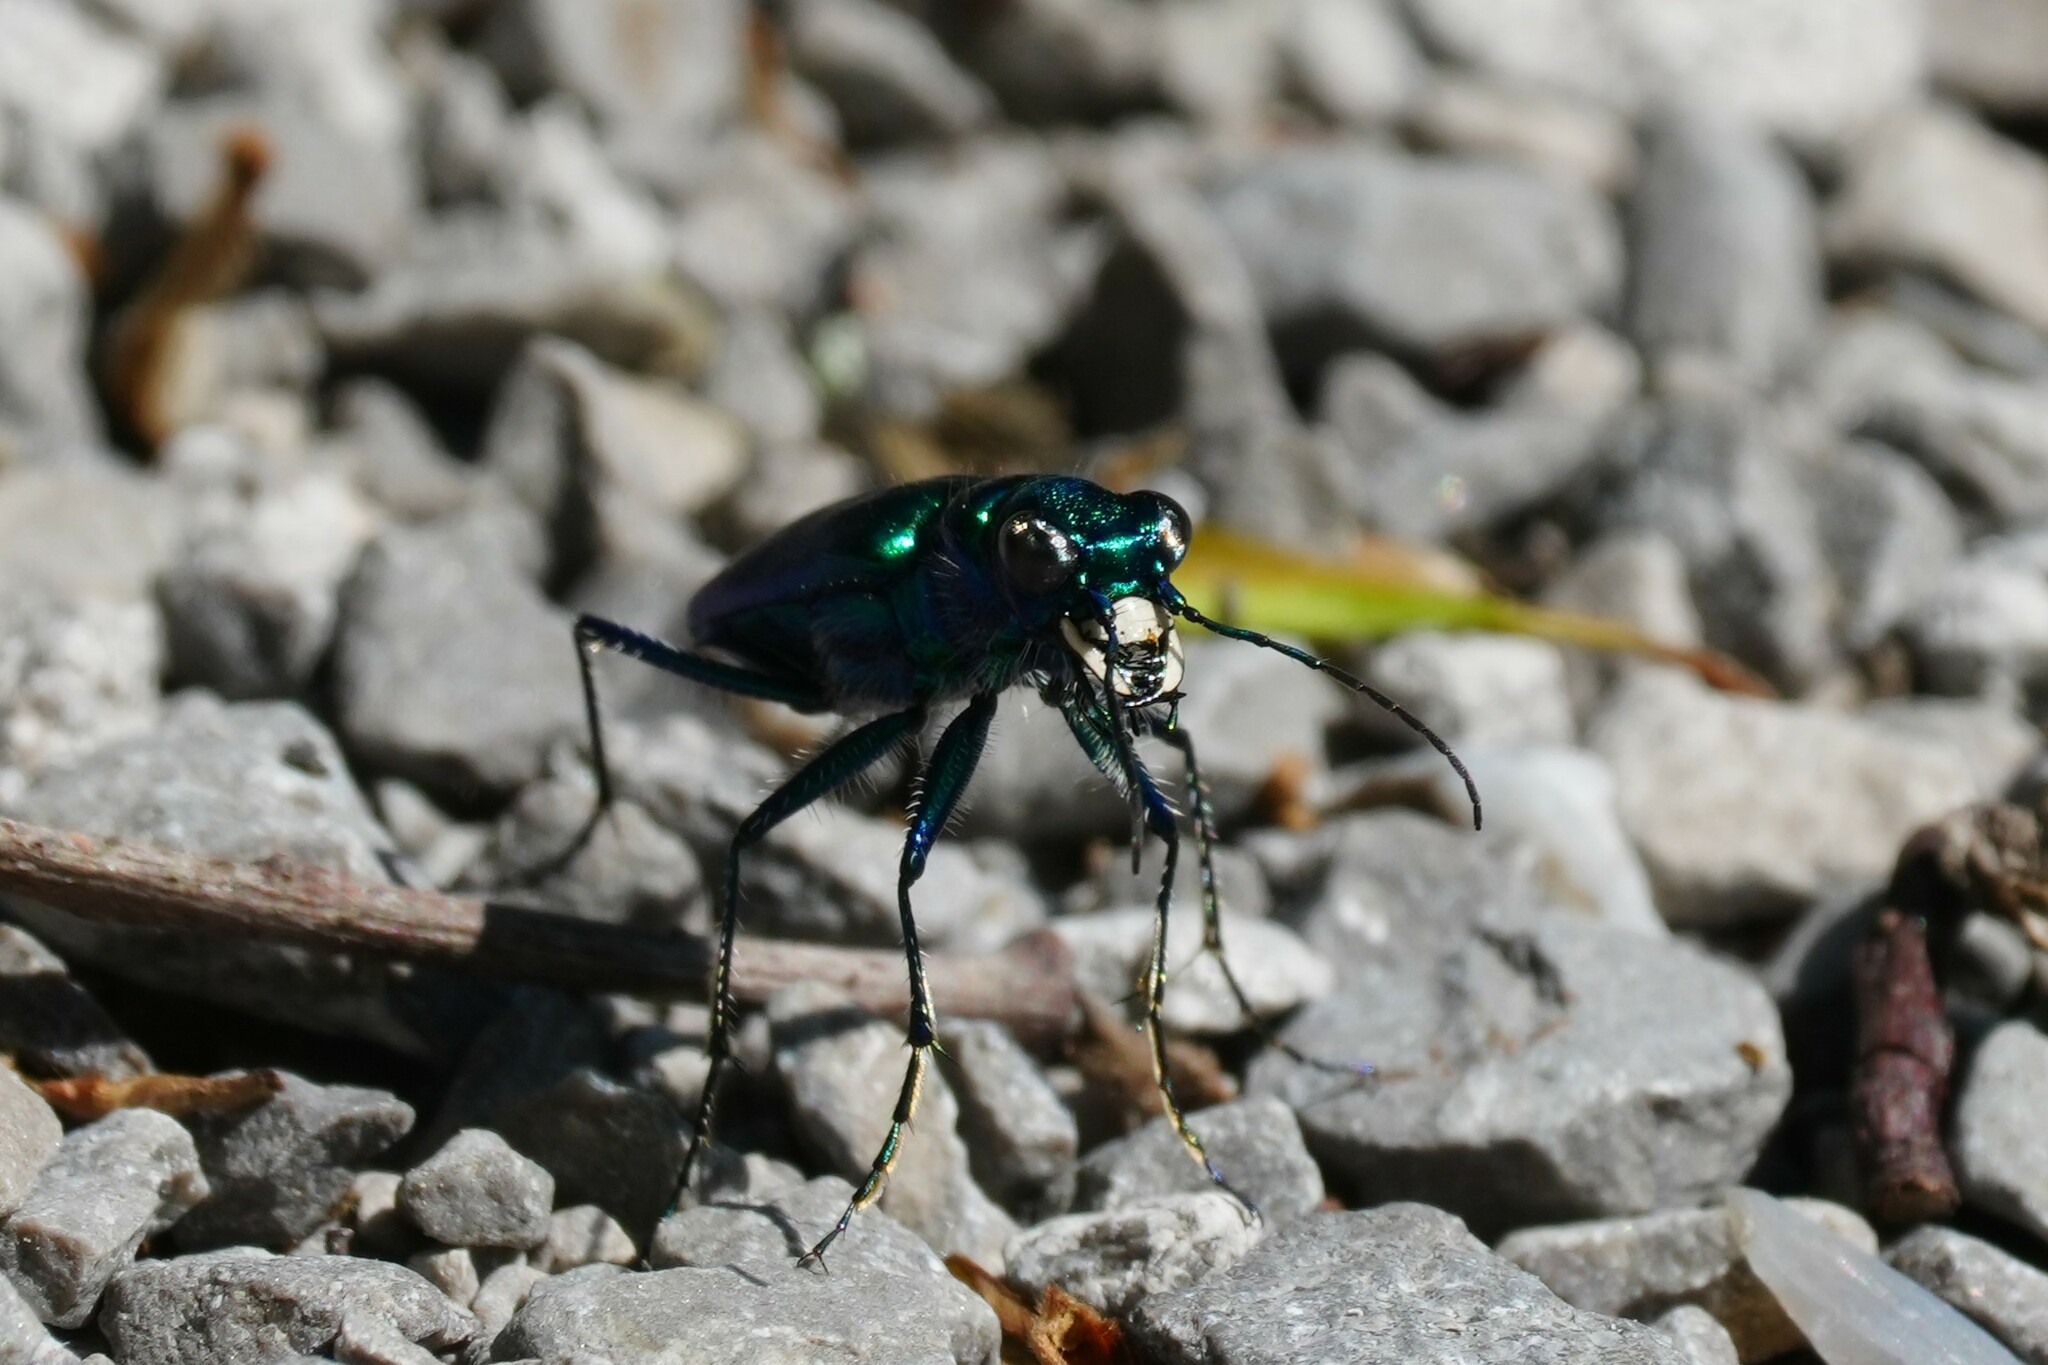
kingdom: Animalia
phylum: Arthropoda
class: Insecta
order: Coleoptera
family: Carabidae
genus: Cicindela
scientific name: Cicindela sexguttata
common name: Six-spotted tiger beetle
